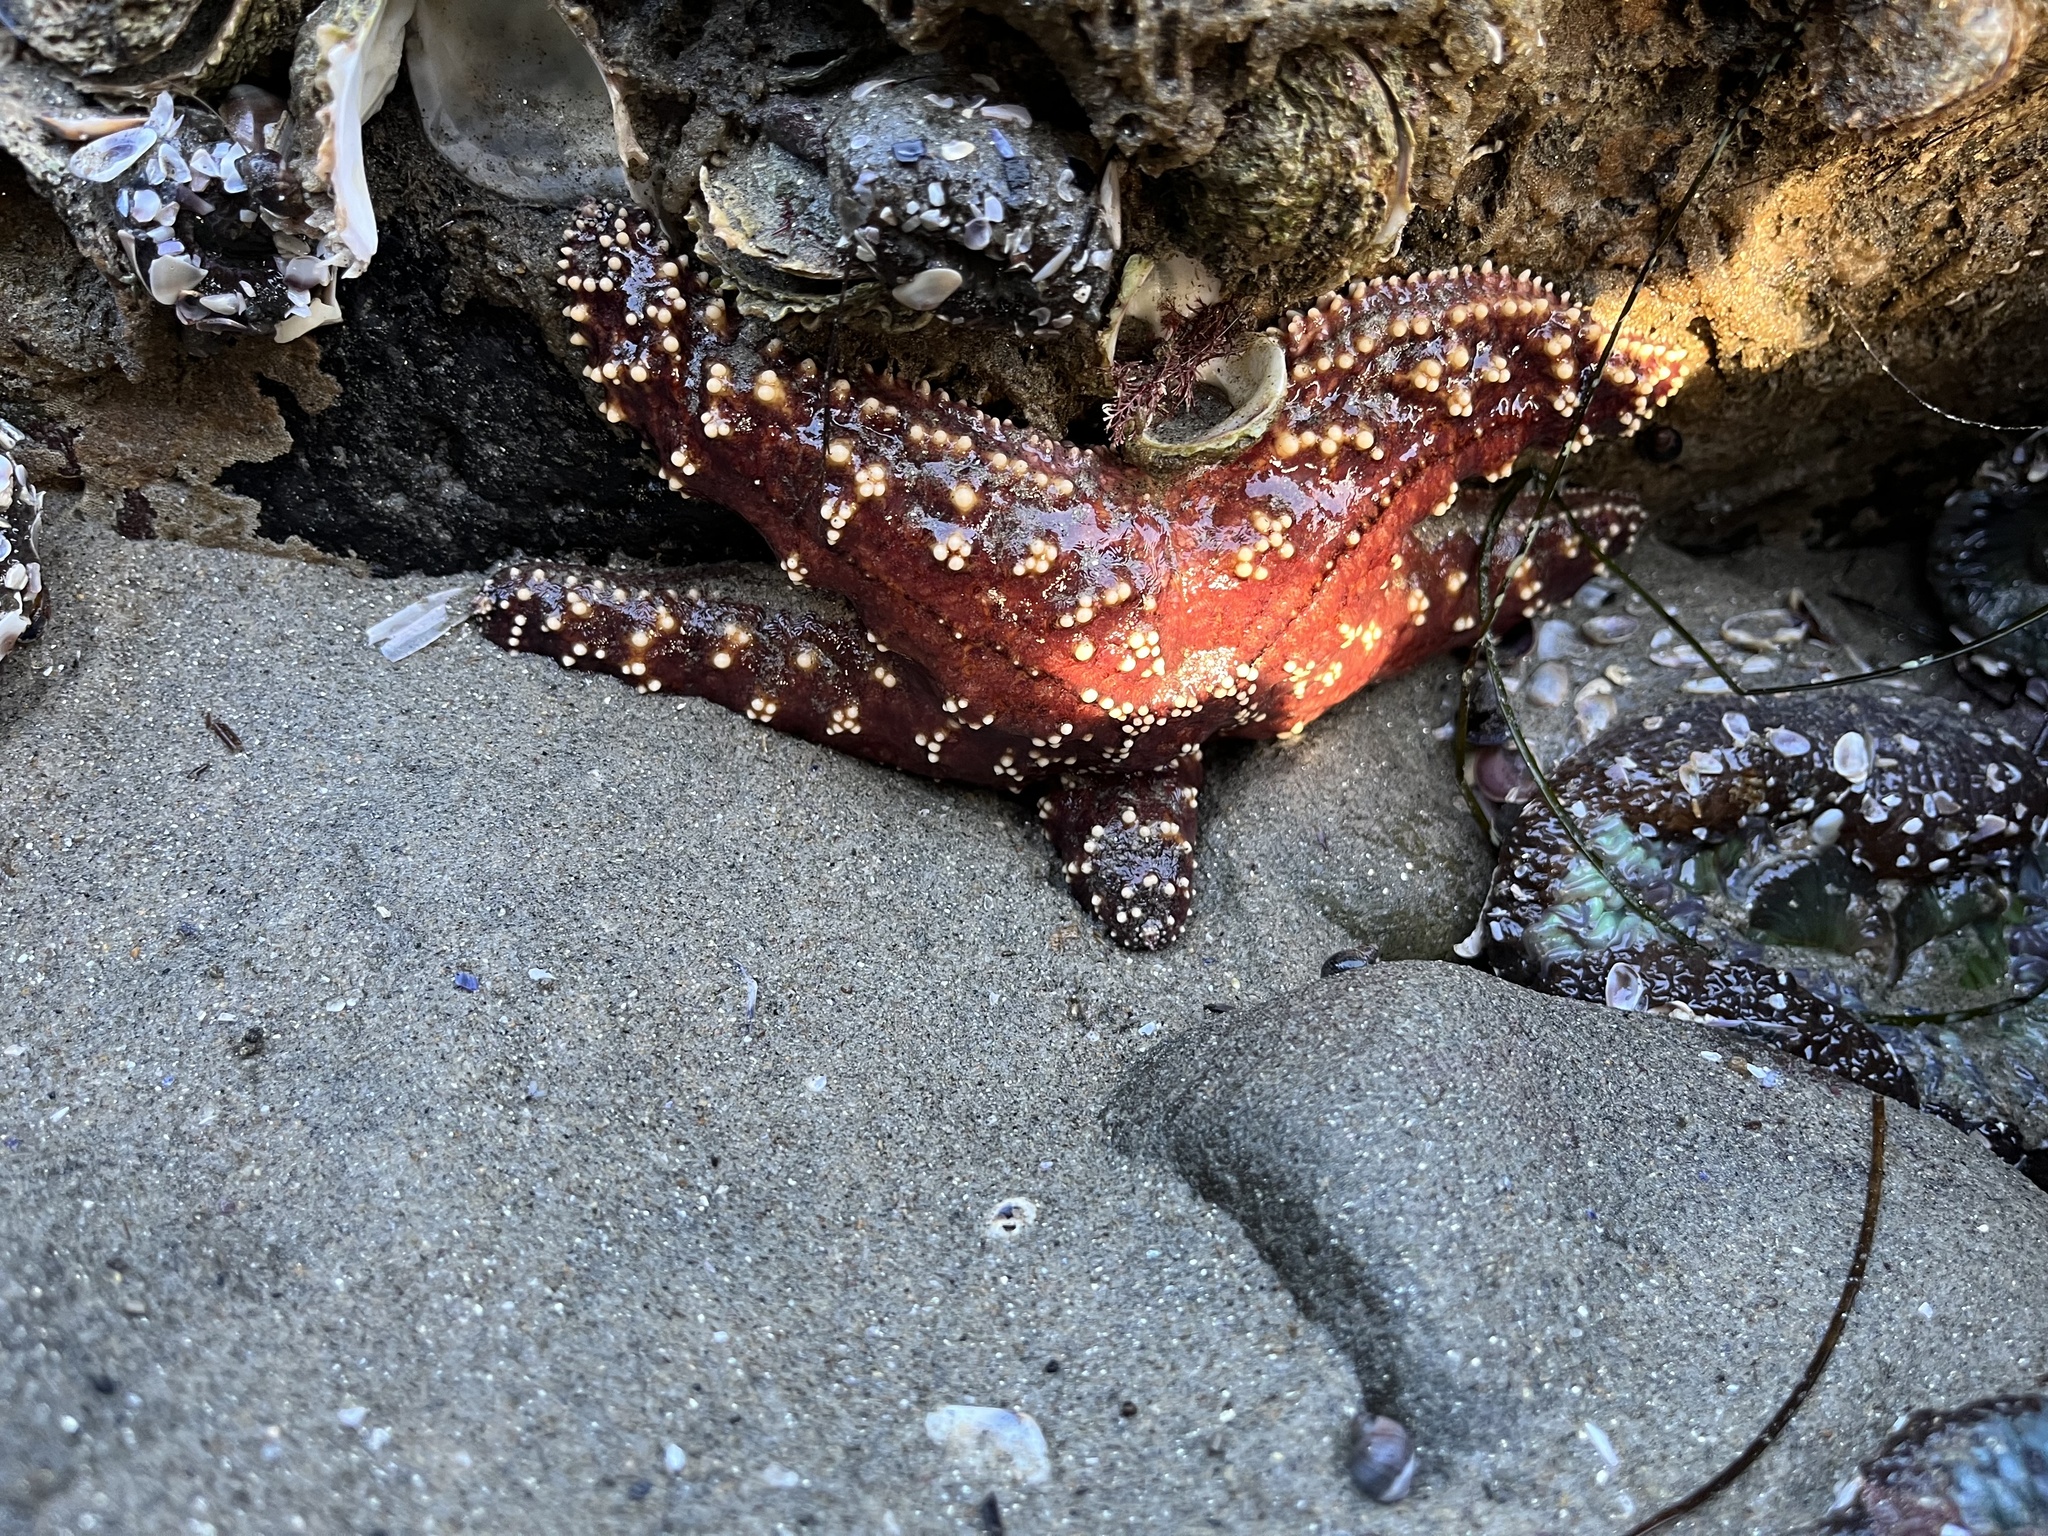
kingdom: Animalia
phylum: Echinodermata
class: Asteroidea
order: Forcipulatida
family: Asteriidae
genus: Pisaster
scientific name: Pisaster ochraceus
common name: Ochre stars
